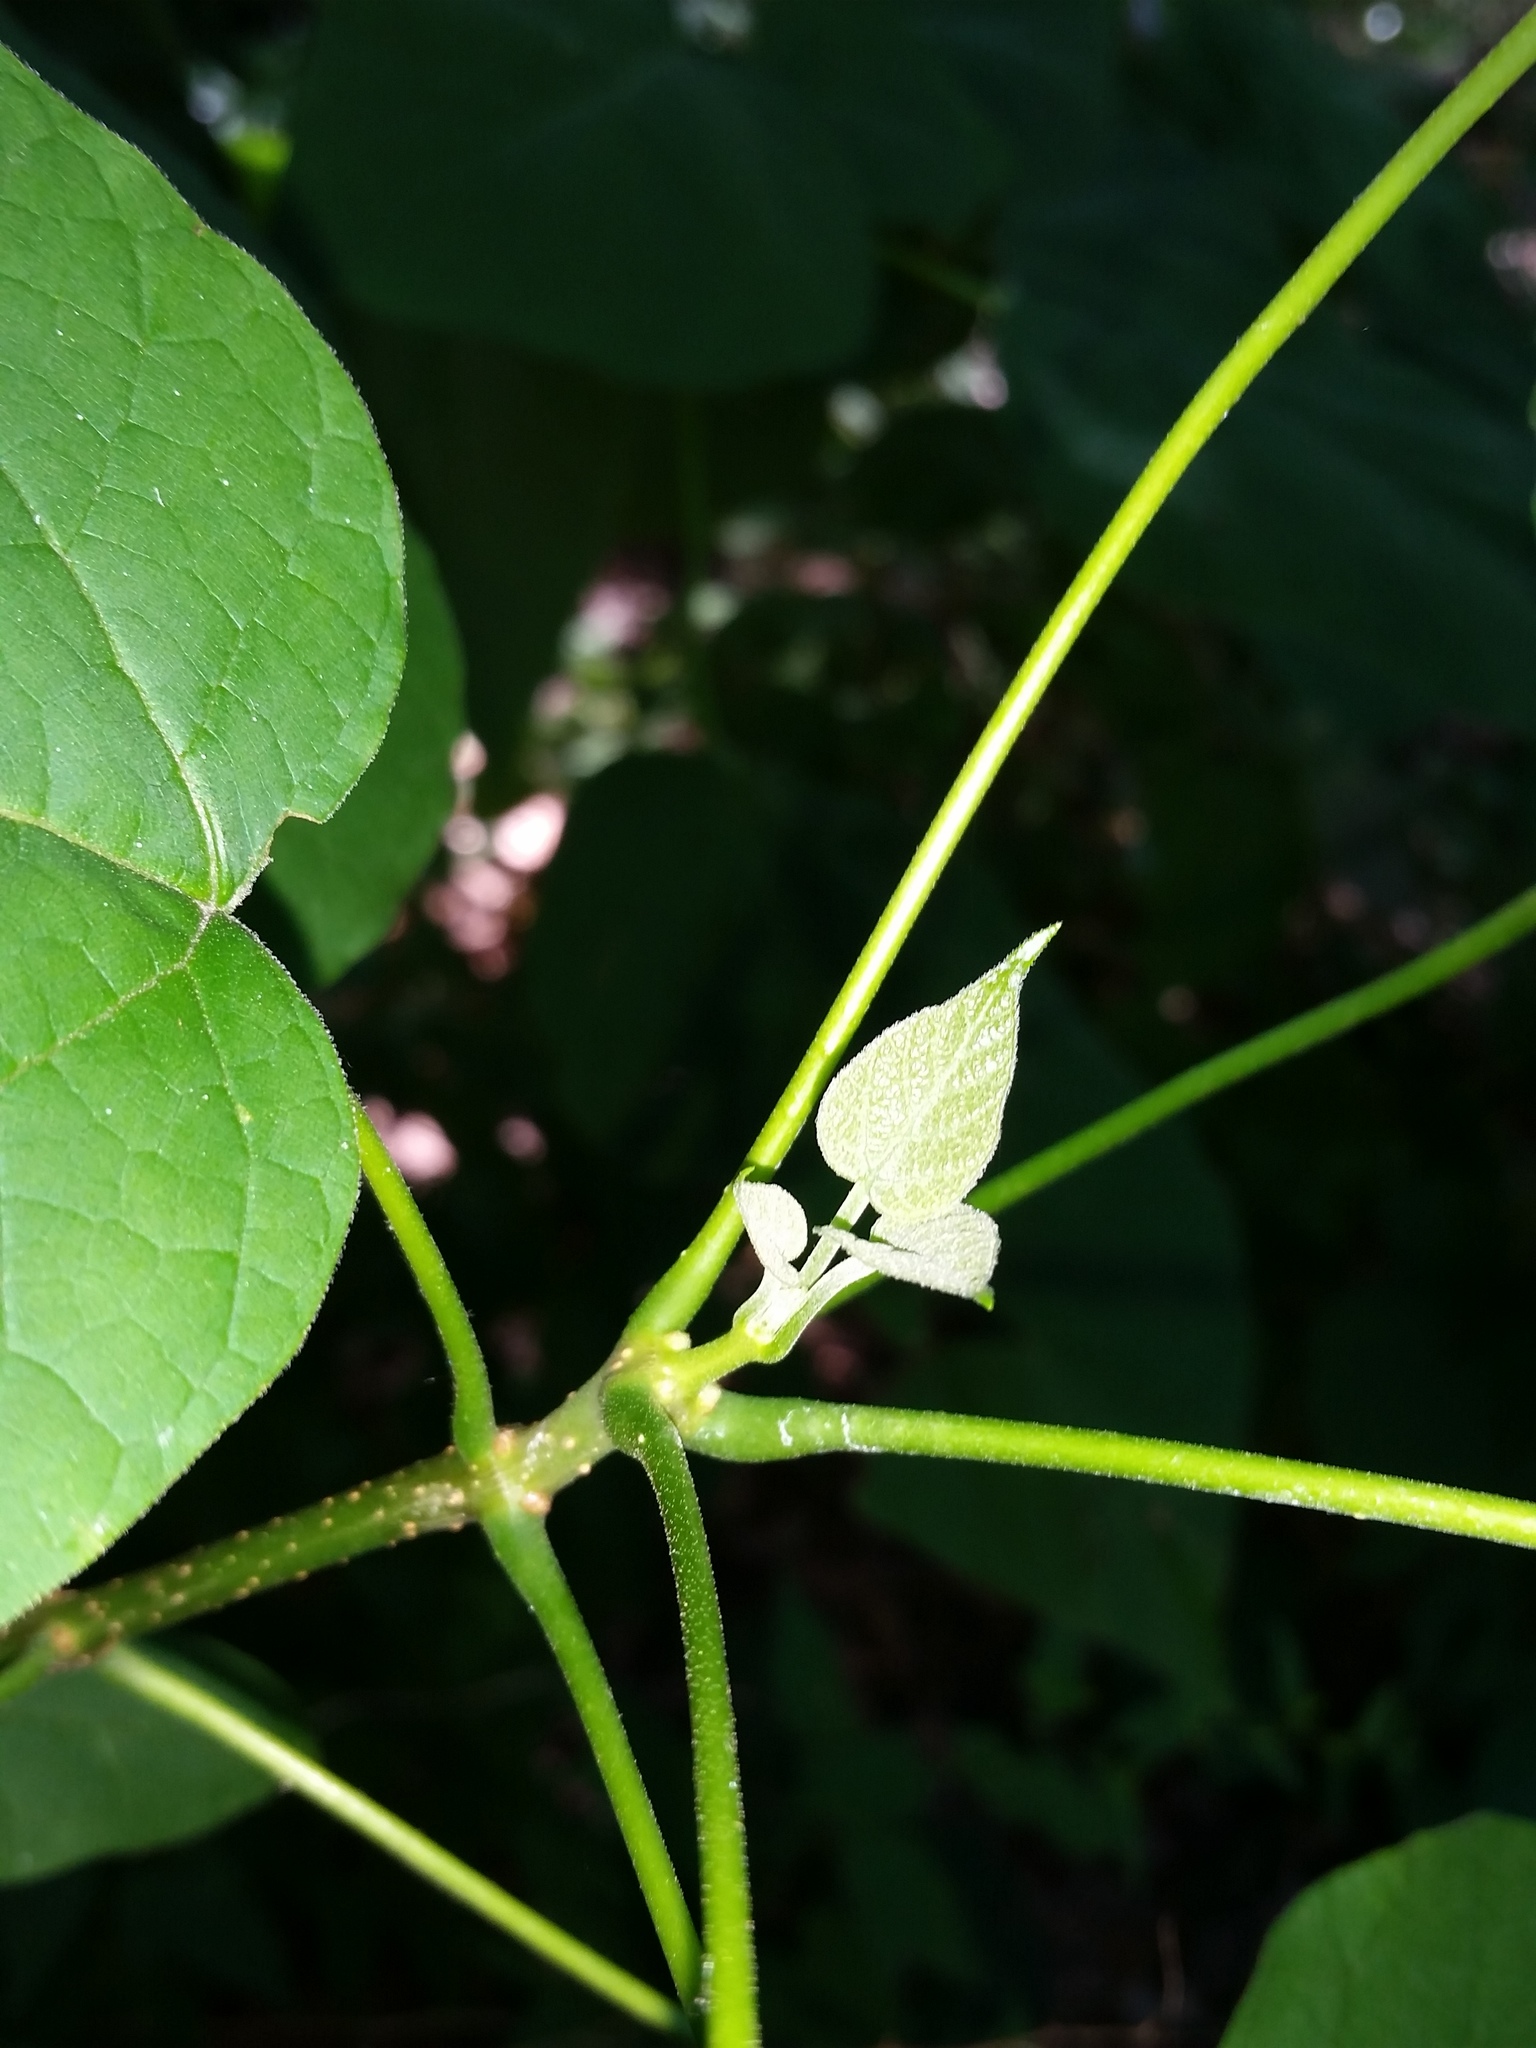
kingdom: Plantae
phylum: Tracheophyta
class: Magnoliopsida
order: Lamiales
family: Bignoniaceae
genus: Catalpa
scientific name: Catalpa speciosa
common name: Northern catalpa
